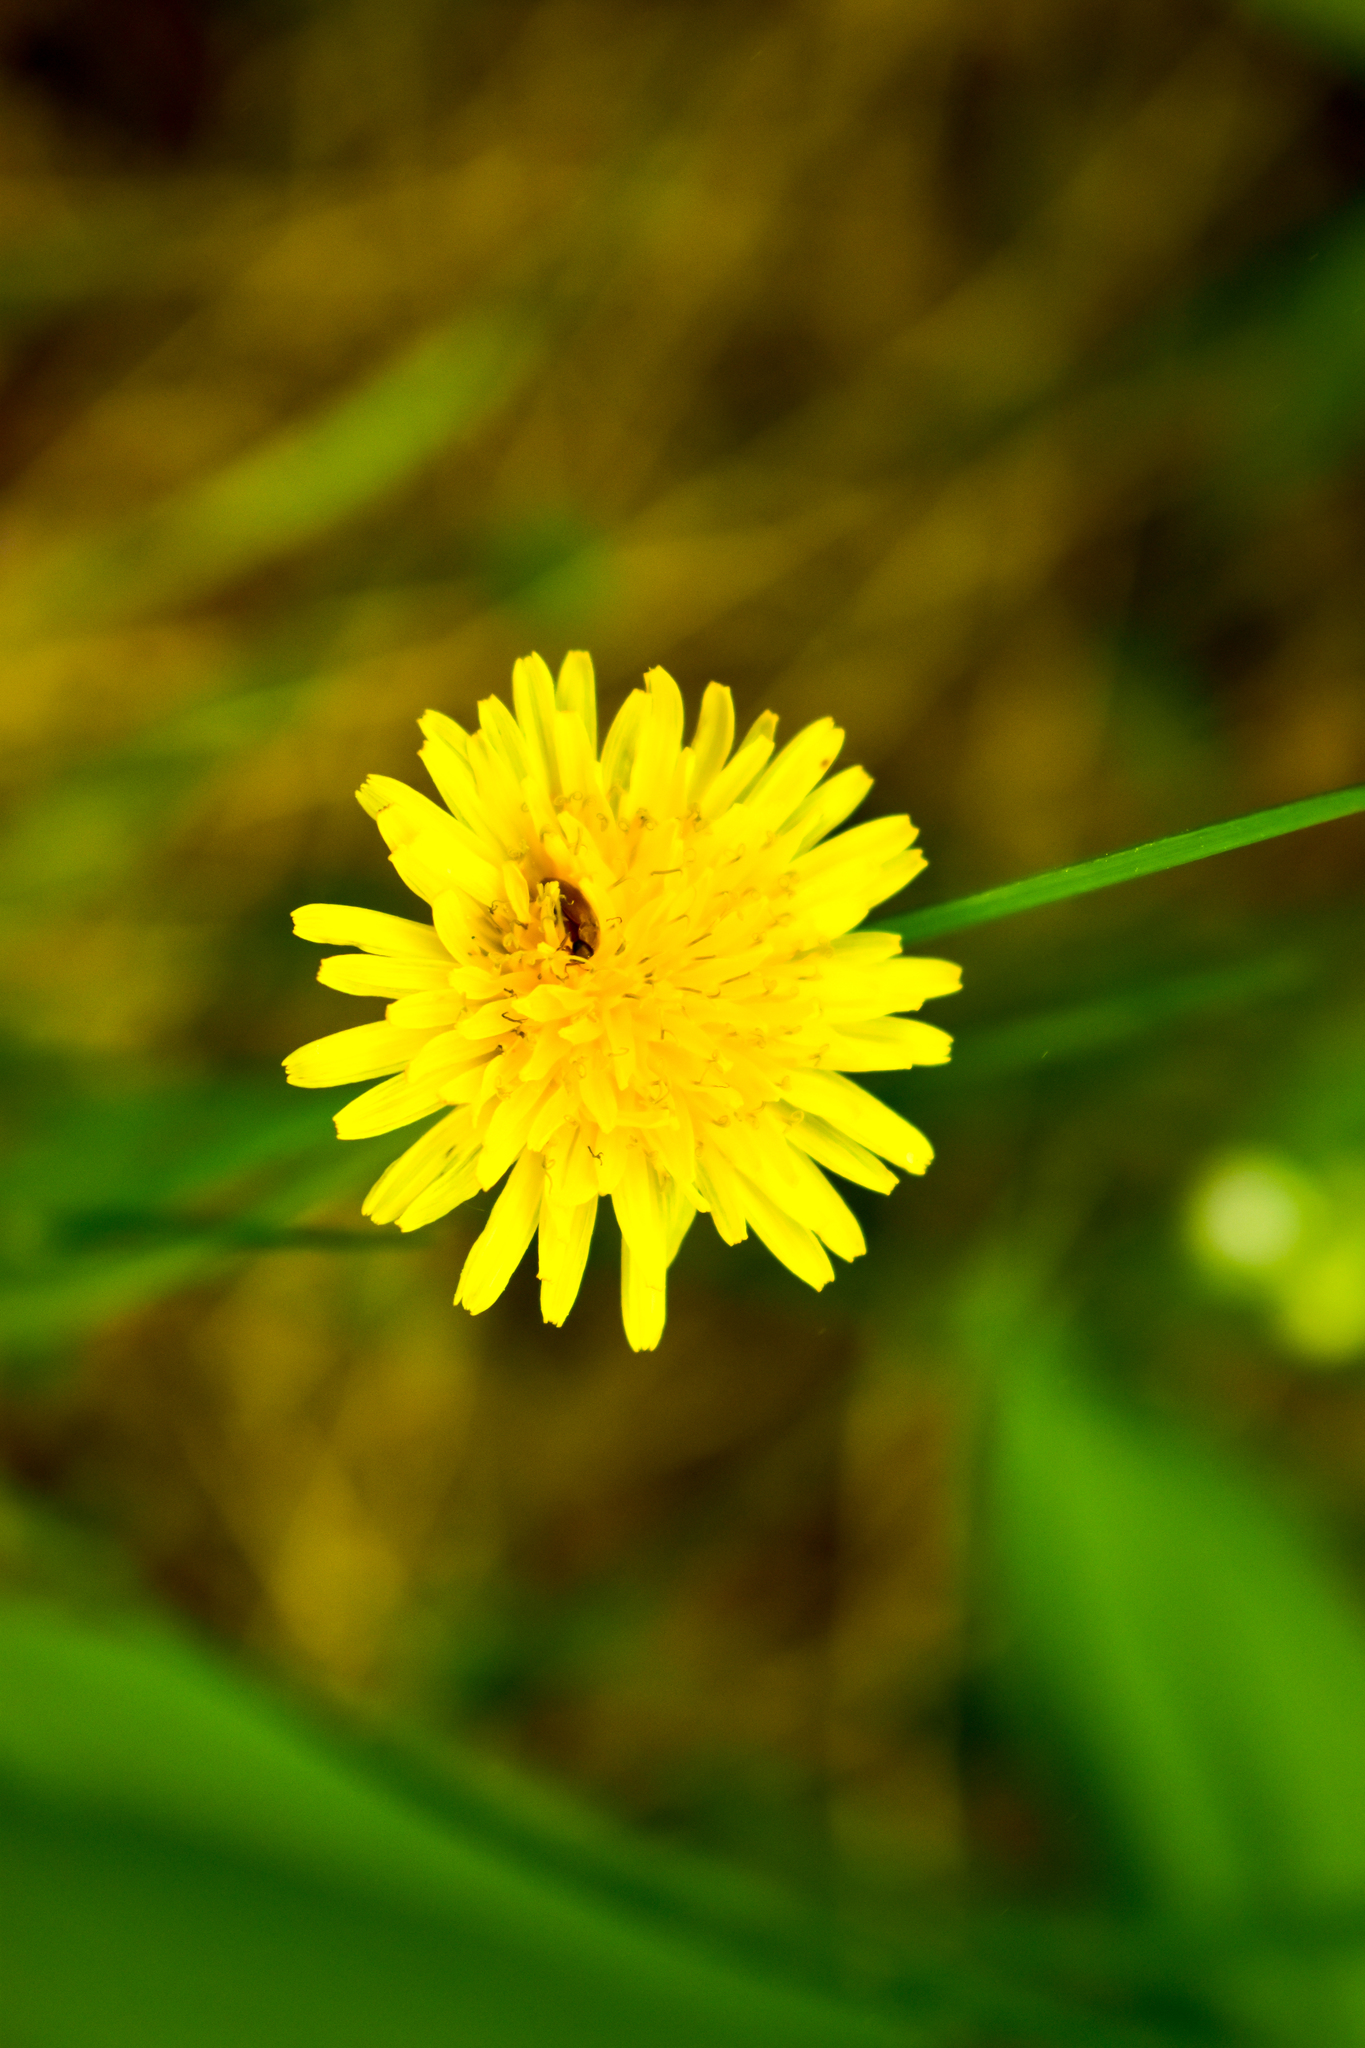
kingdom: Plantae
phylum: Tracheophyta
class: Magnoliopsida
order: Asterales
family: Asteraceae
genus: Taraxacum
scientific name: Taraxacum officinale
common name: Common dandelion
